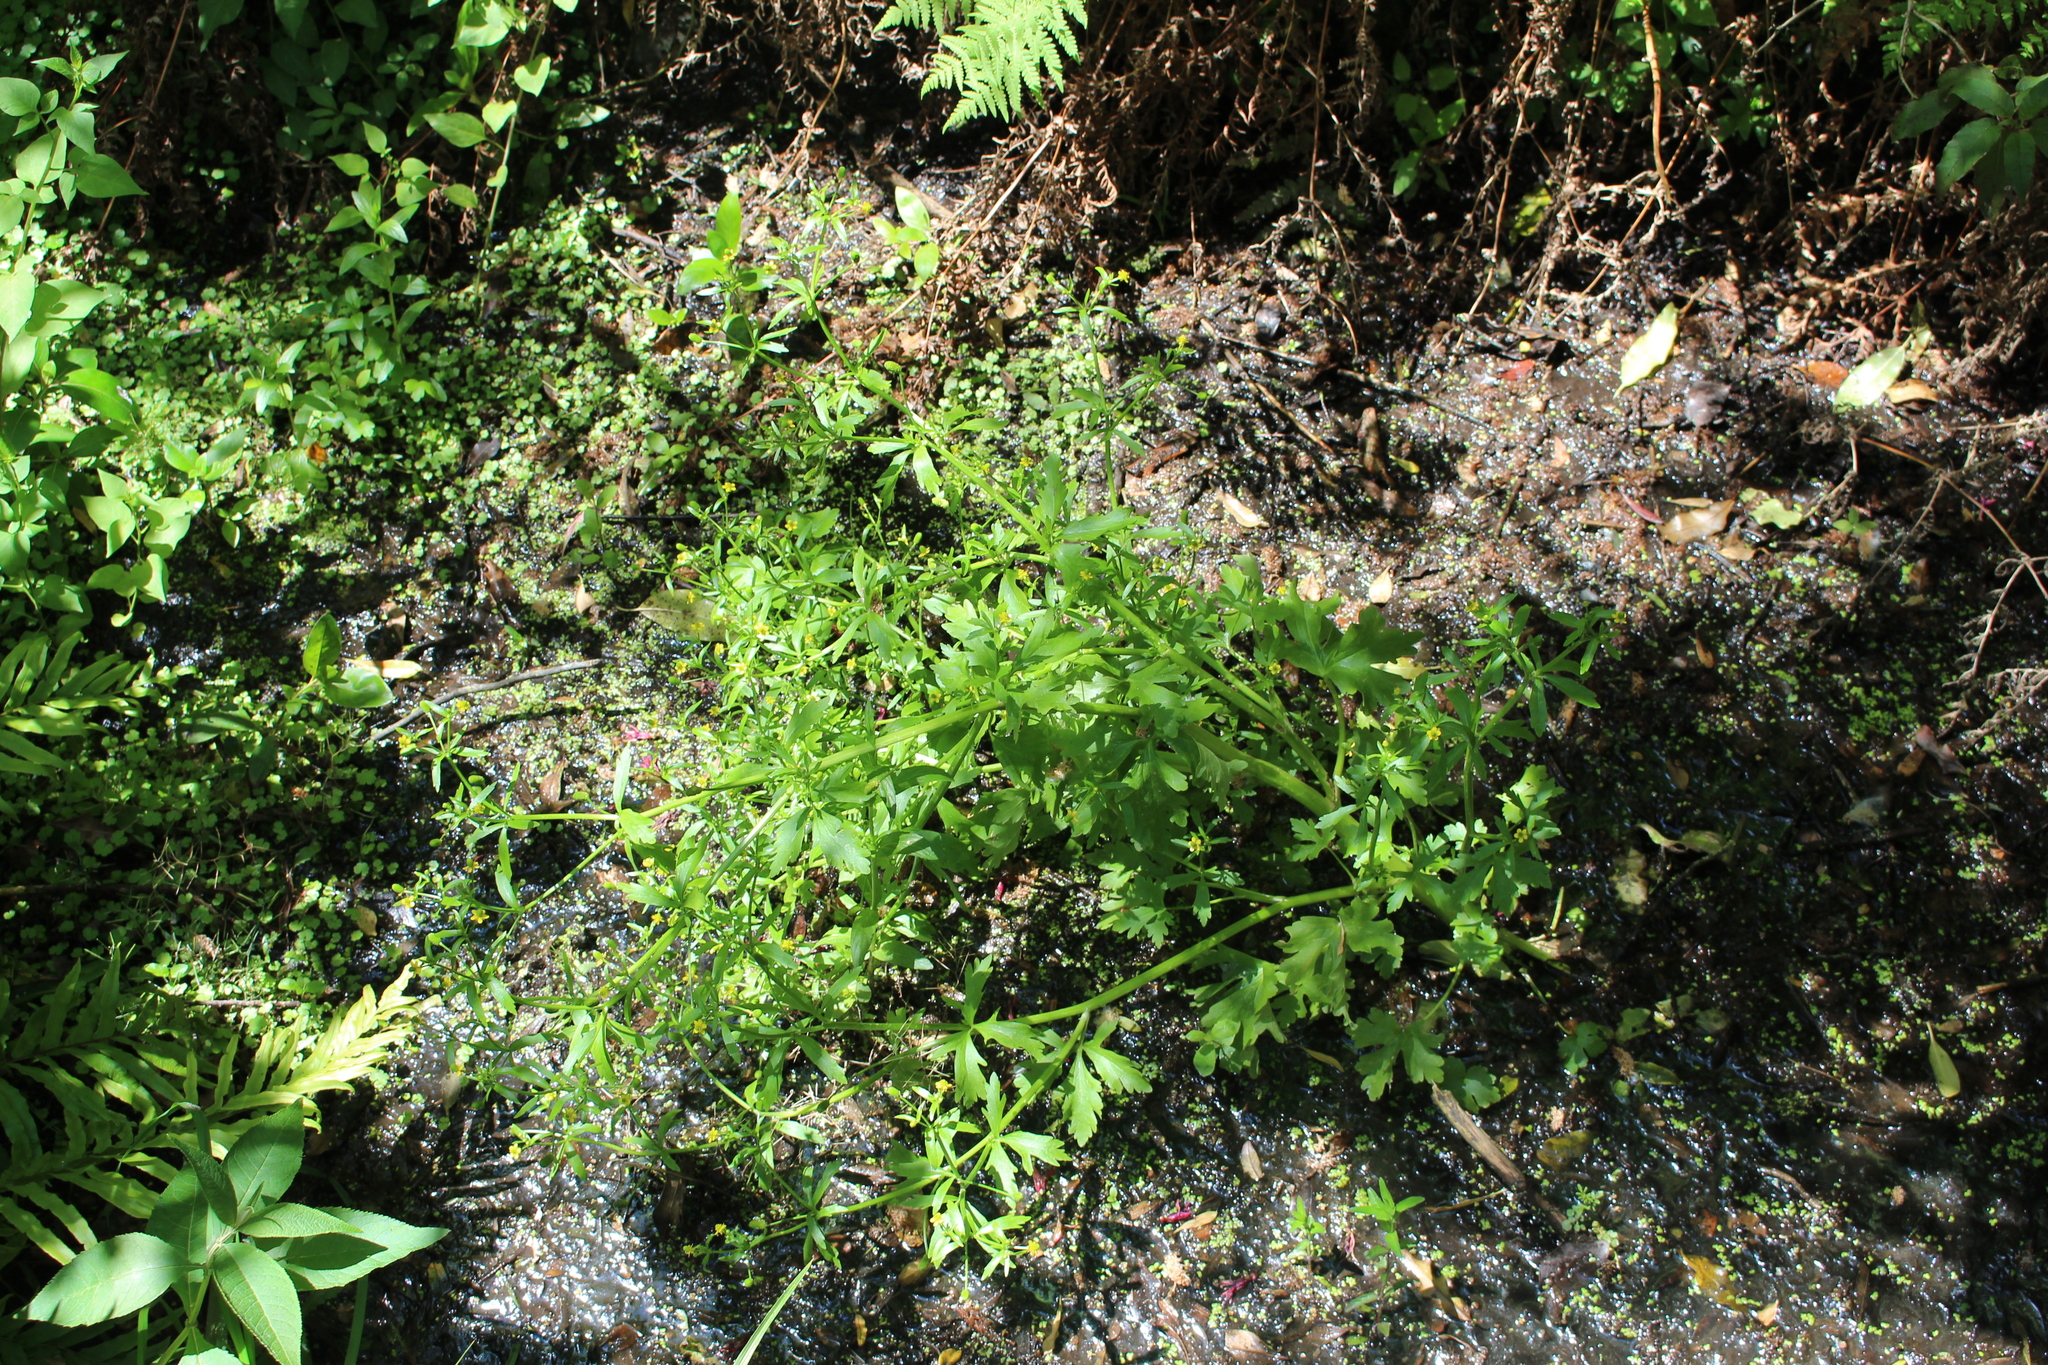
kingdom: Plantae
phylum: Tracheophyta
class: Magnoliopsida
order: Ranunculales
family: Ranunculaceae
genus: Ranunculus
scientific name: Ranunculus sceleratus
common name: Celery-leaved buttercup
